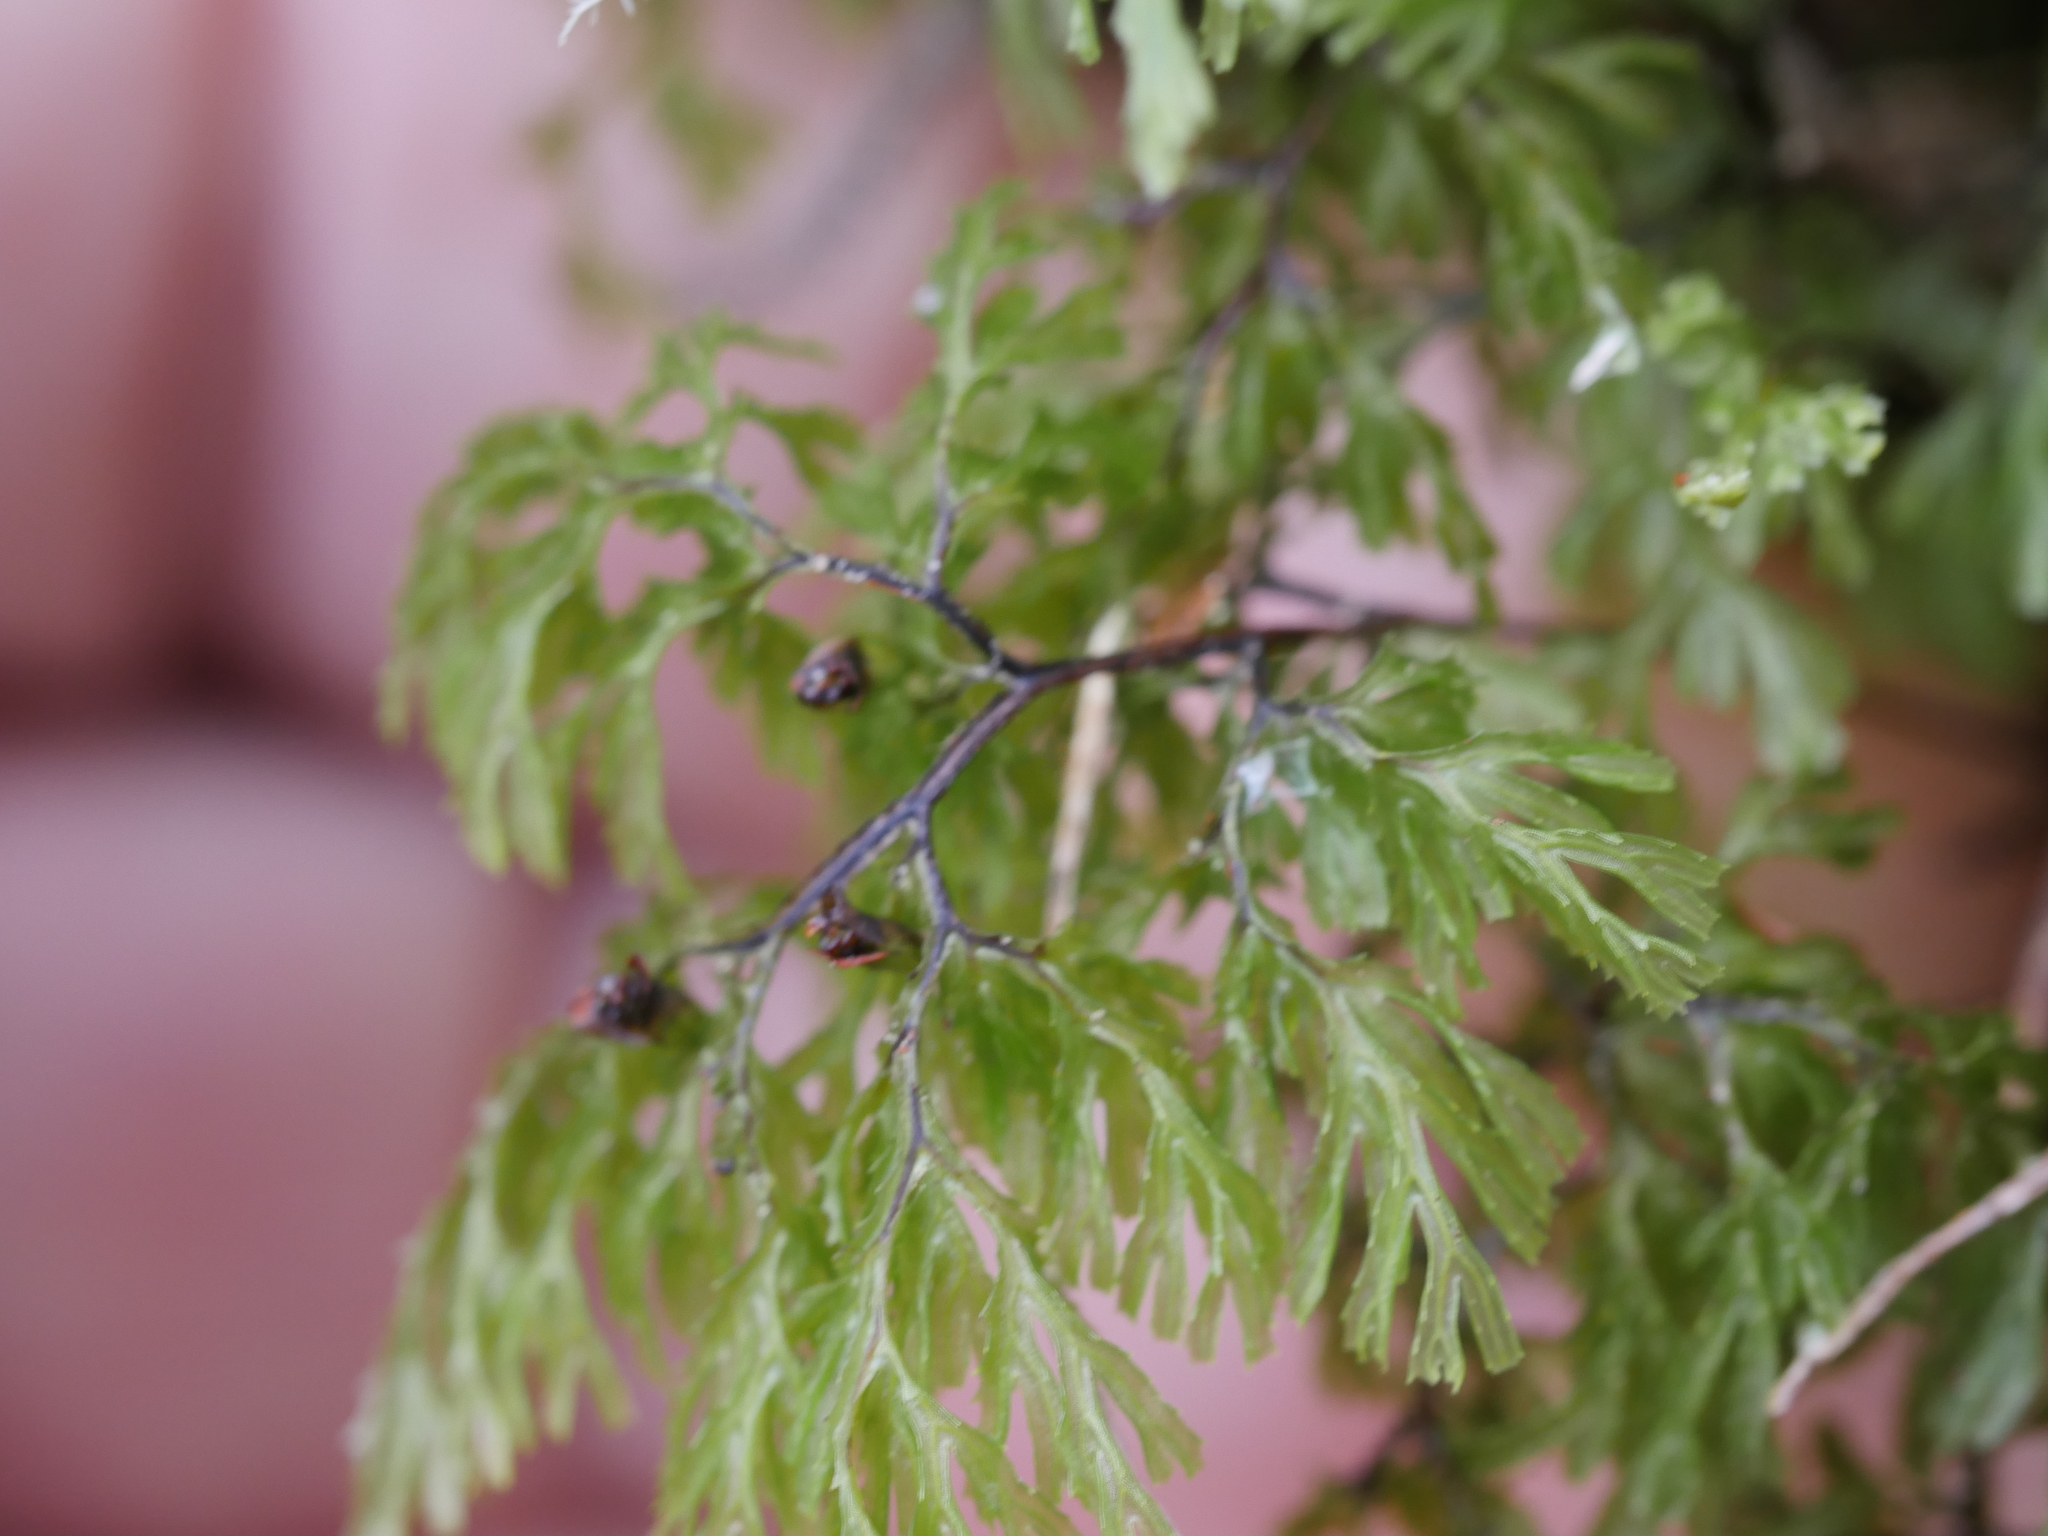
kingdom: Plantae
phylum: Tracheophyta
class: Polypodiopsida
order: Hymenophyllales
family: Hymenophyllaceae
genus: Hymenophyllum
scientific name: Hymenophyllum multifidum
